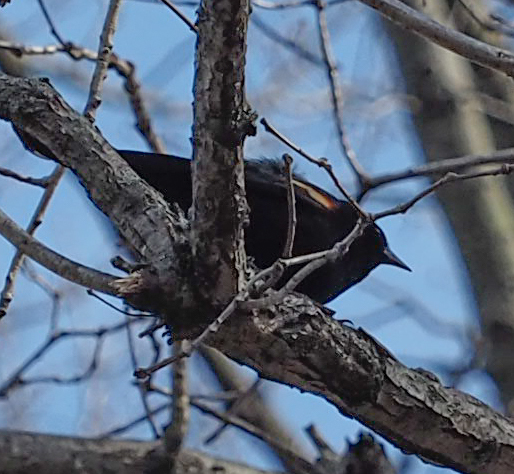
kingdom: Animalia
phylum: Chordata
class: Aves
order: Passeriformes
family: Icteridae
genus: Agelaius
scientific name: Agelaius phoeniceus
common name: Red-winged blackbird
